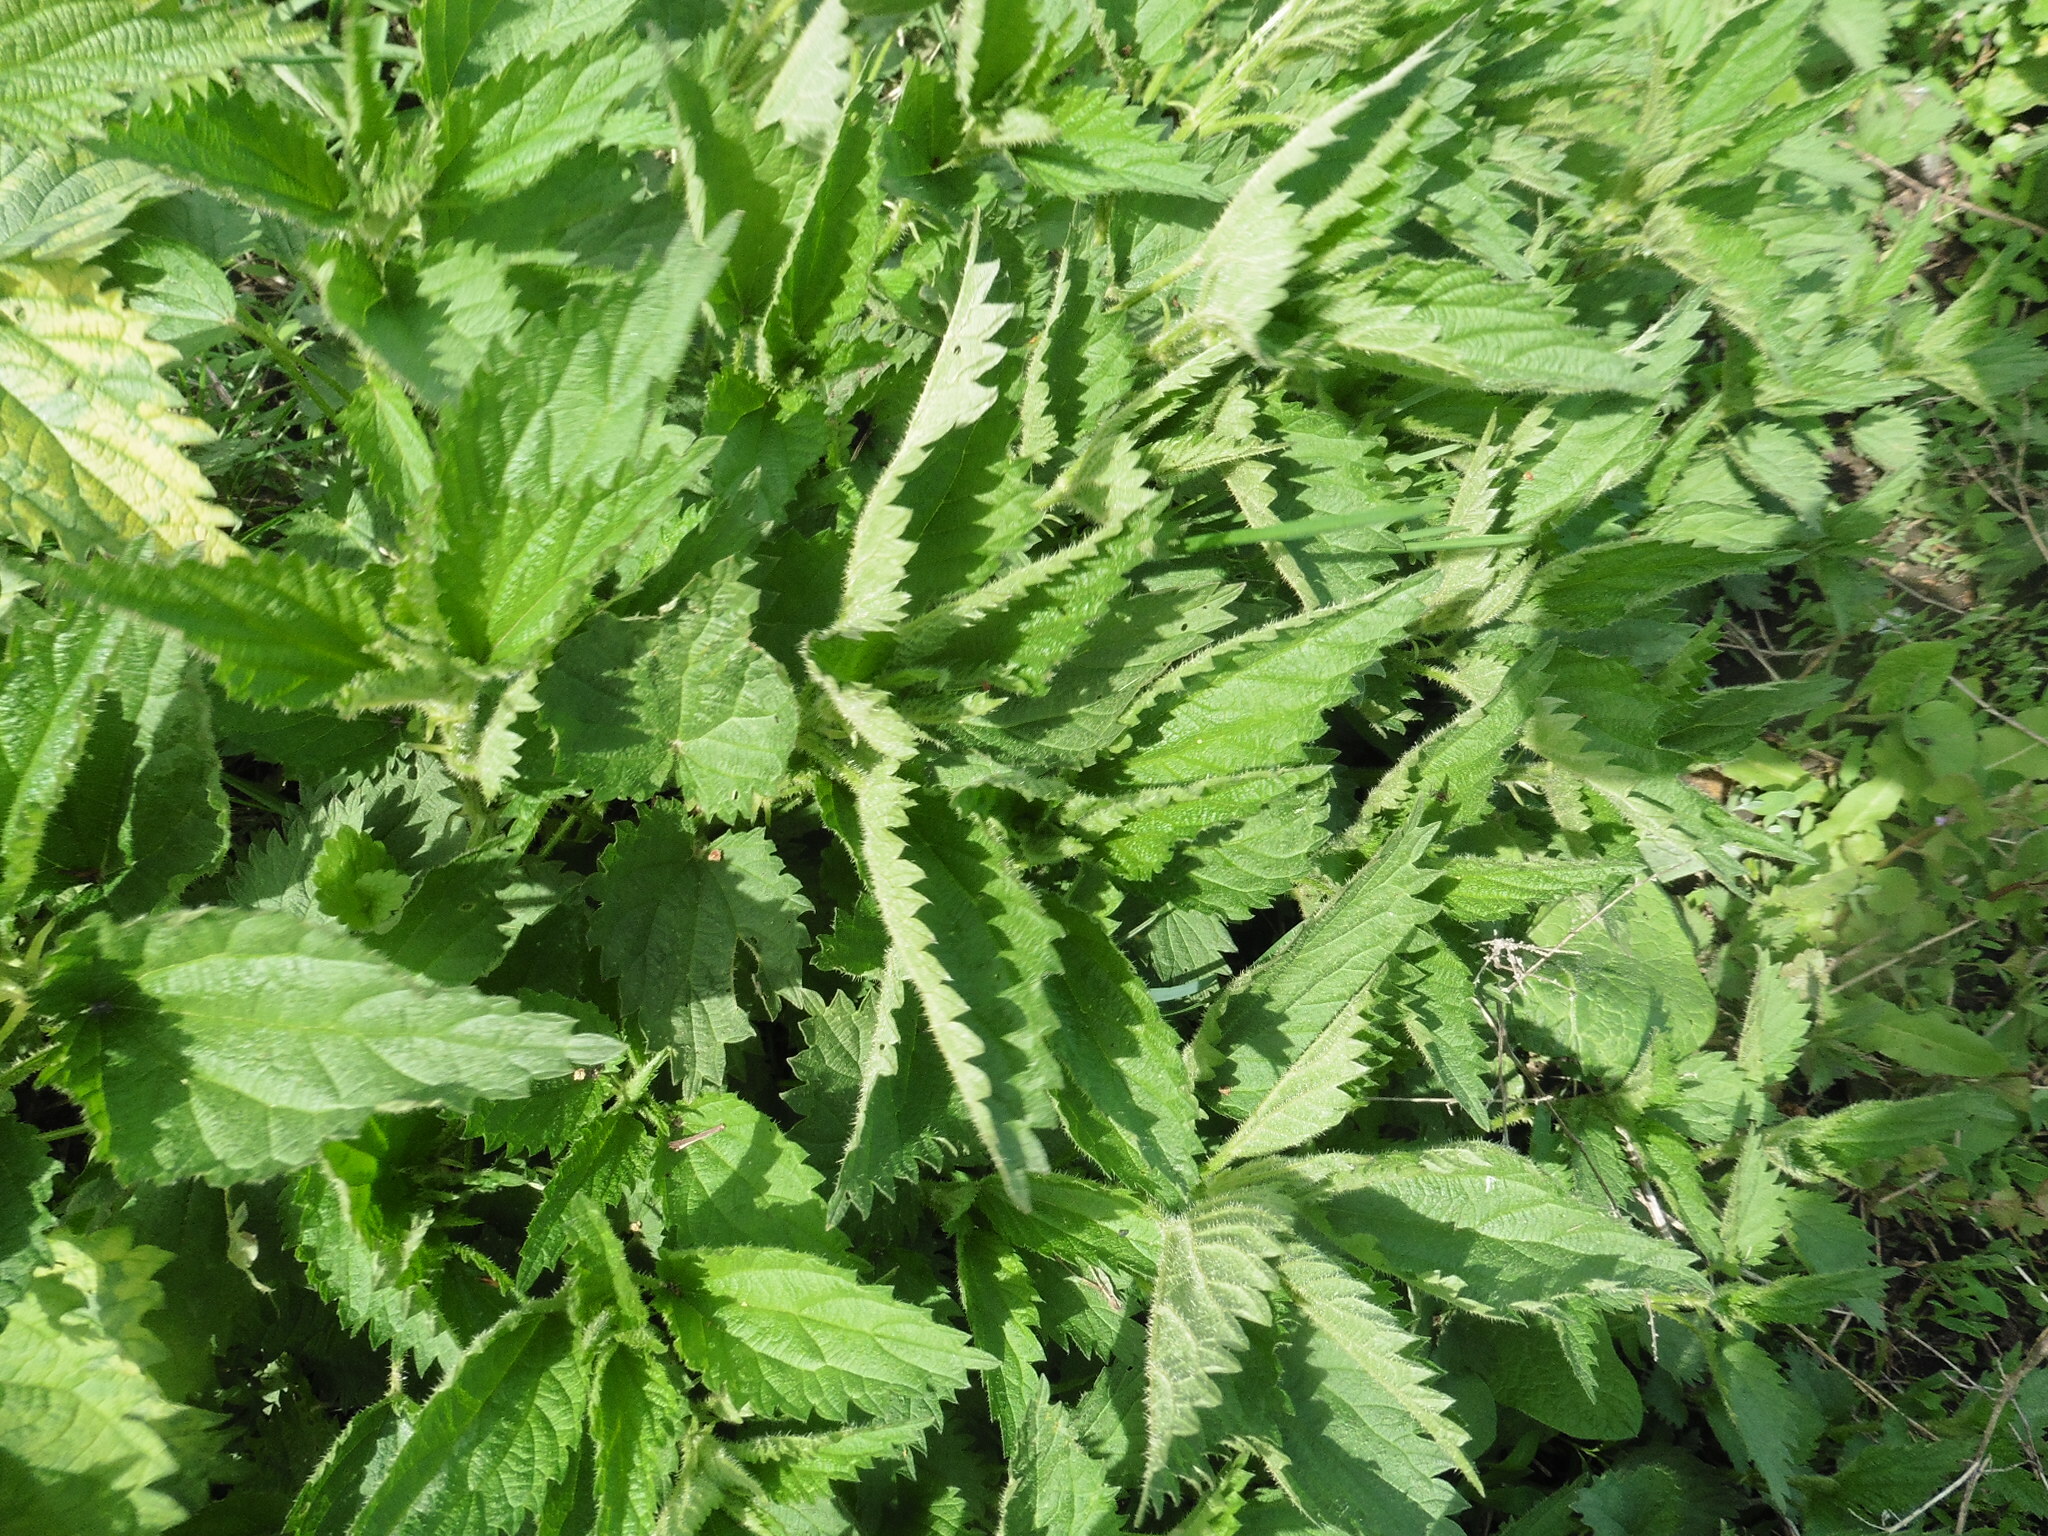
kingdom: Plantae
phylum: Tracheophyta
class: Magnoliopsida
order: Rosales
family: Urticaceae
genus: Urtica
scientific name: Urtica dioica
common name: Common nettle
